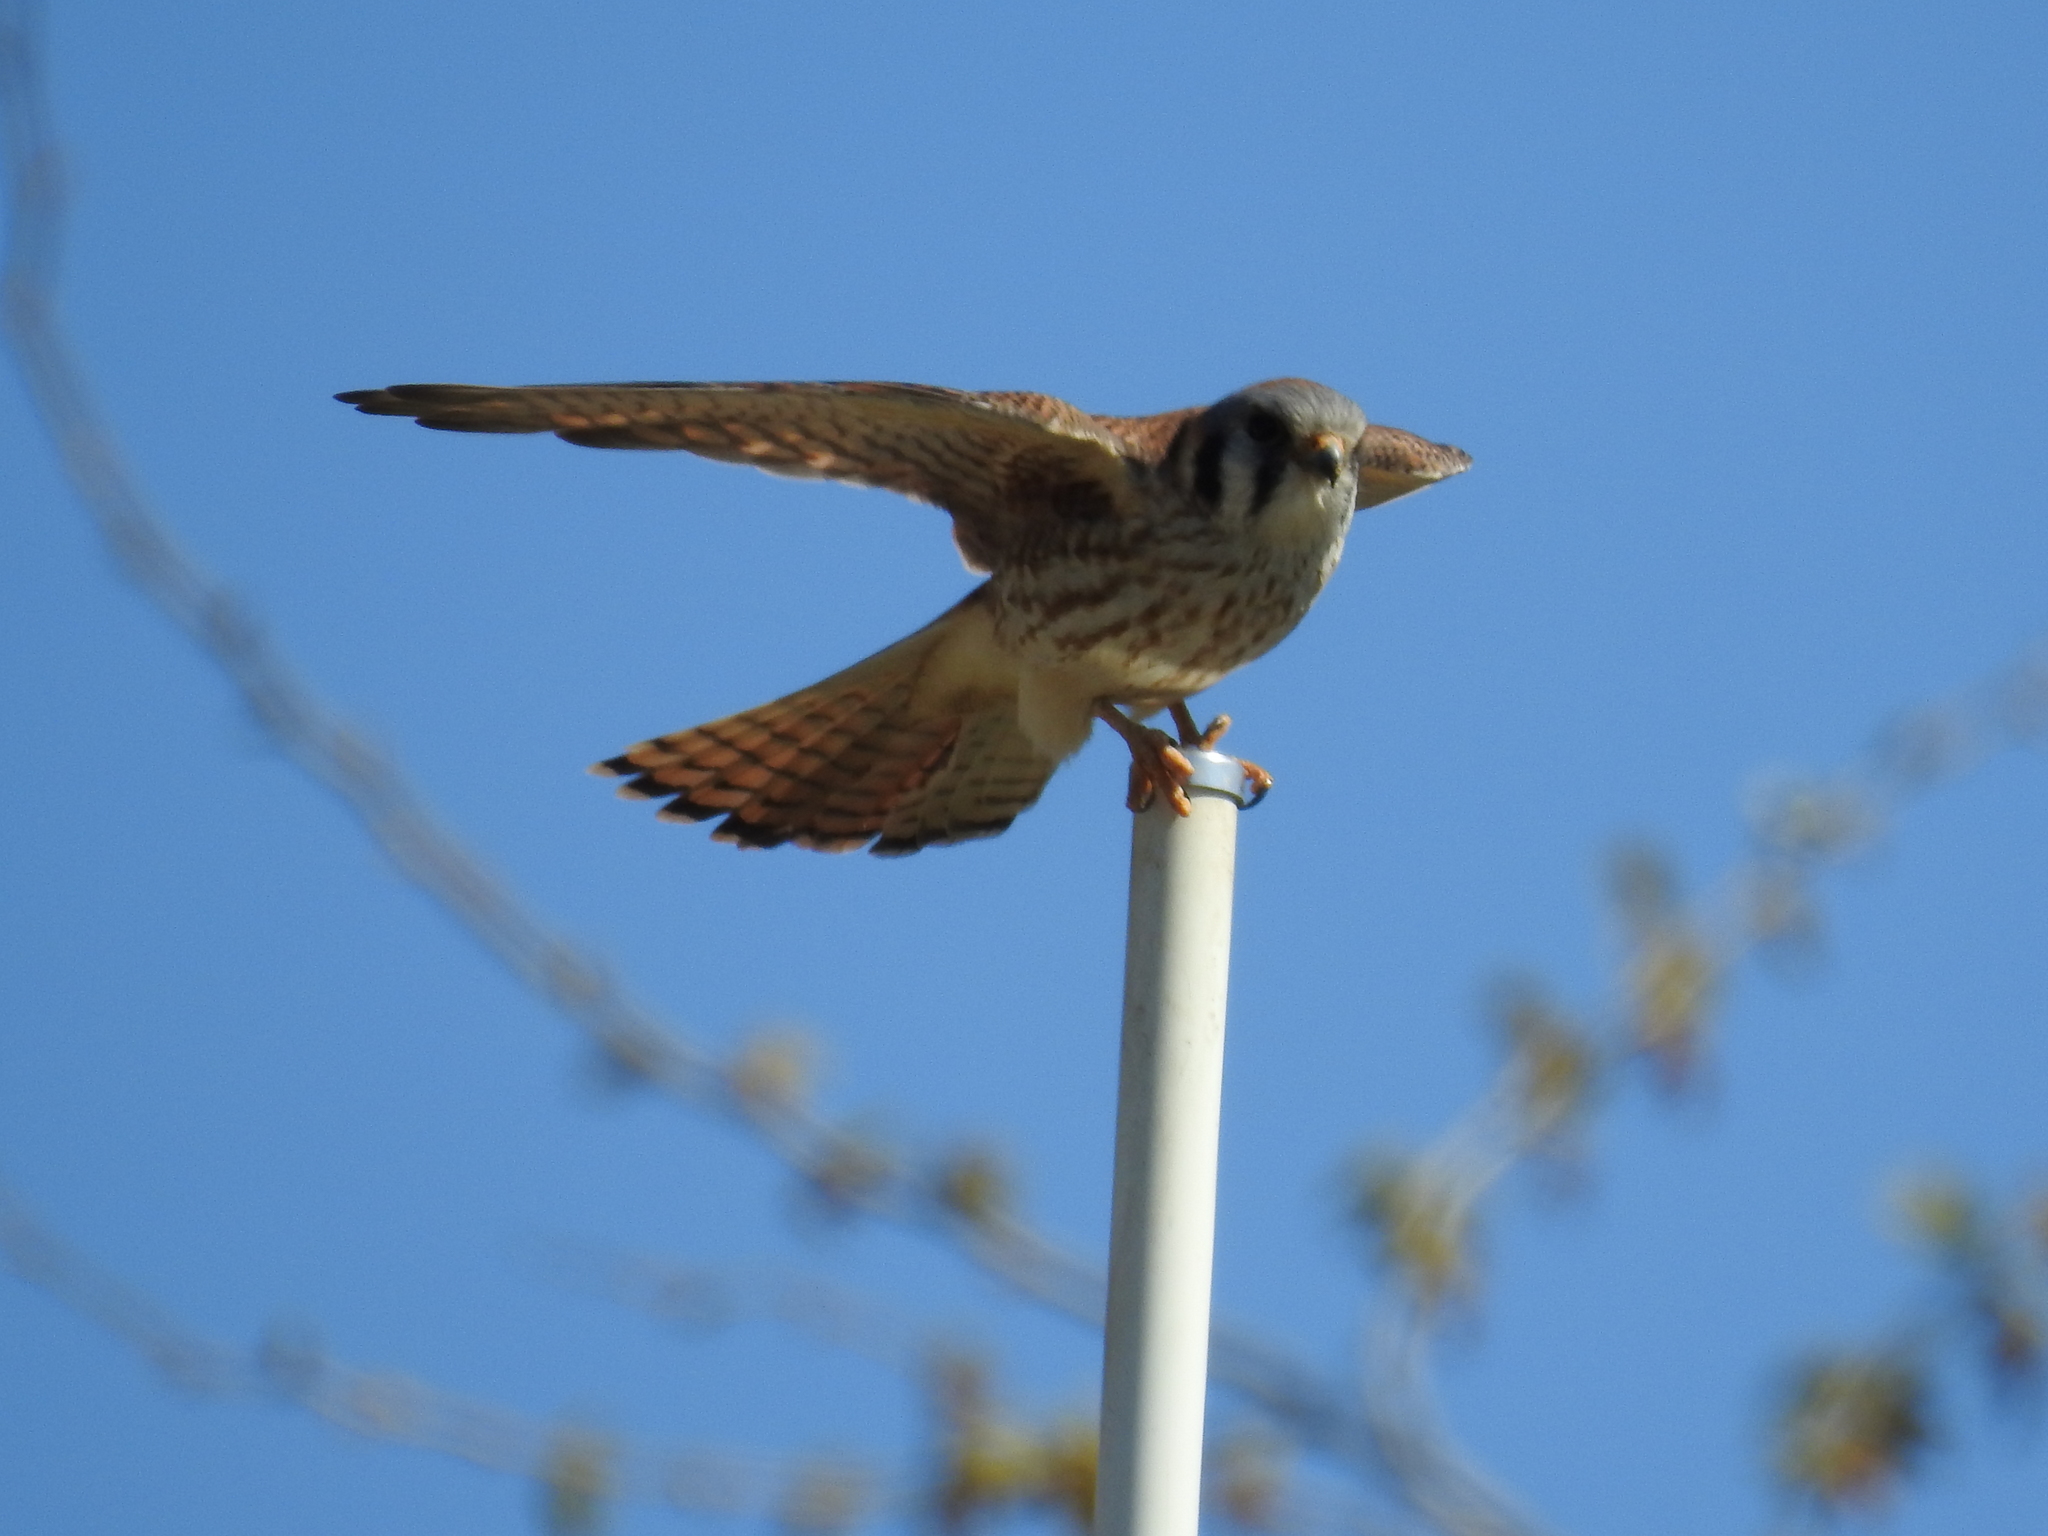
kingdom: Animalia
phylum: Chordata
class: Aves
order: Falconiformes
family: Falconidae
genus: Falco
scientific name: Falco sparverius
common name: American kestrel
